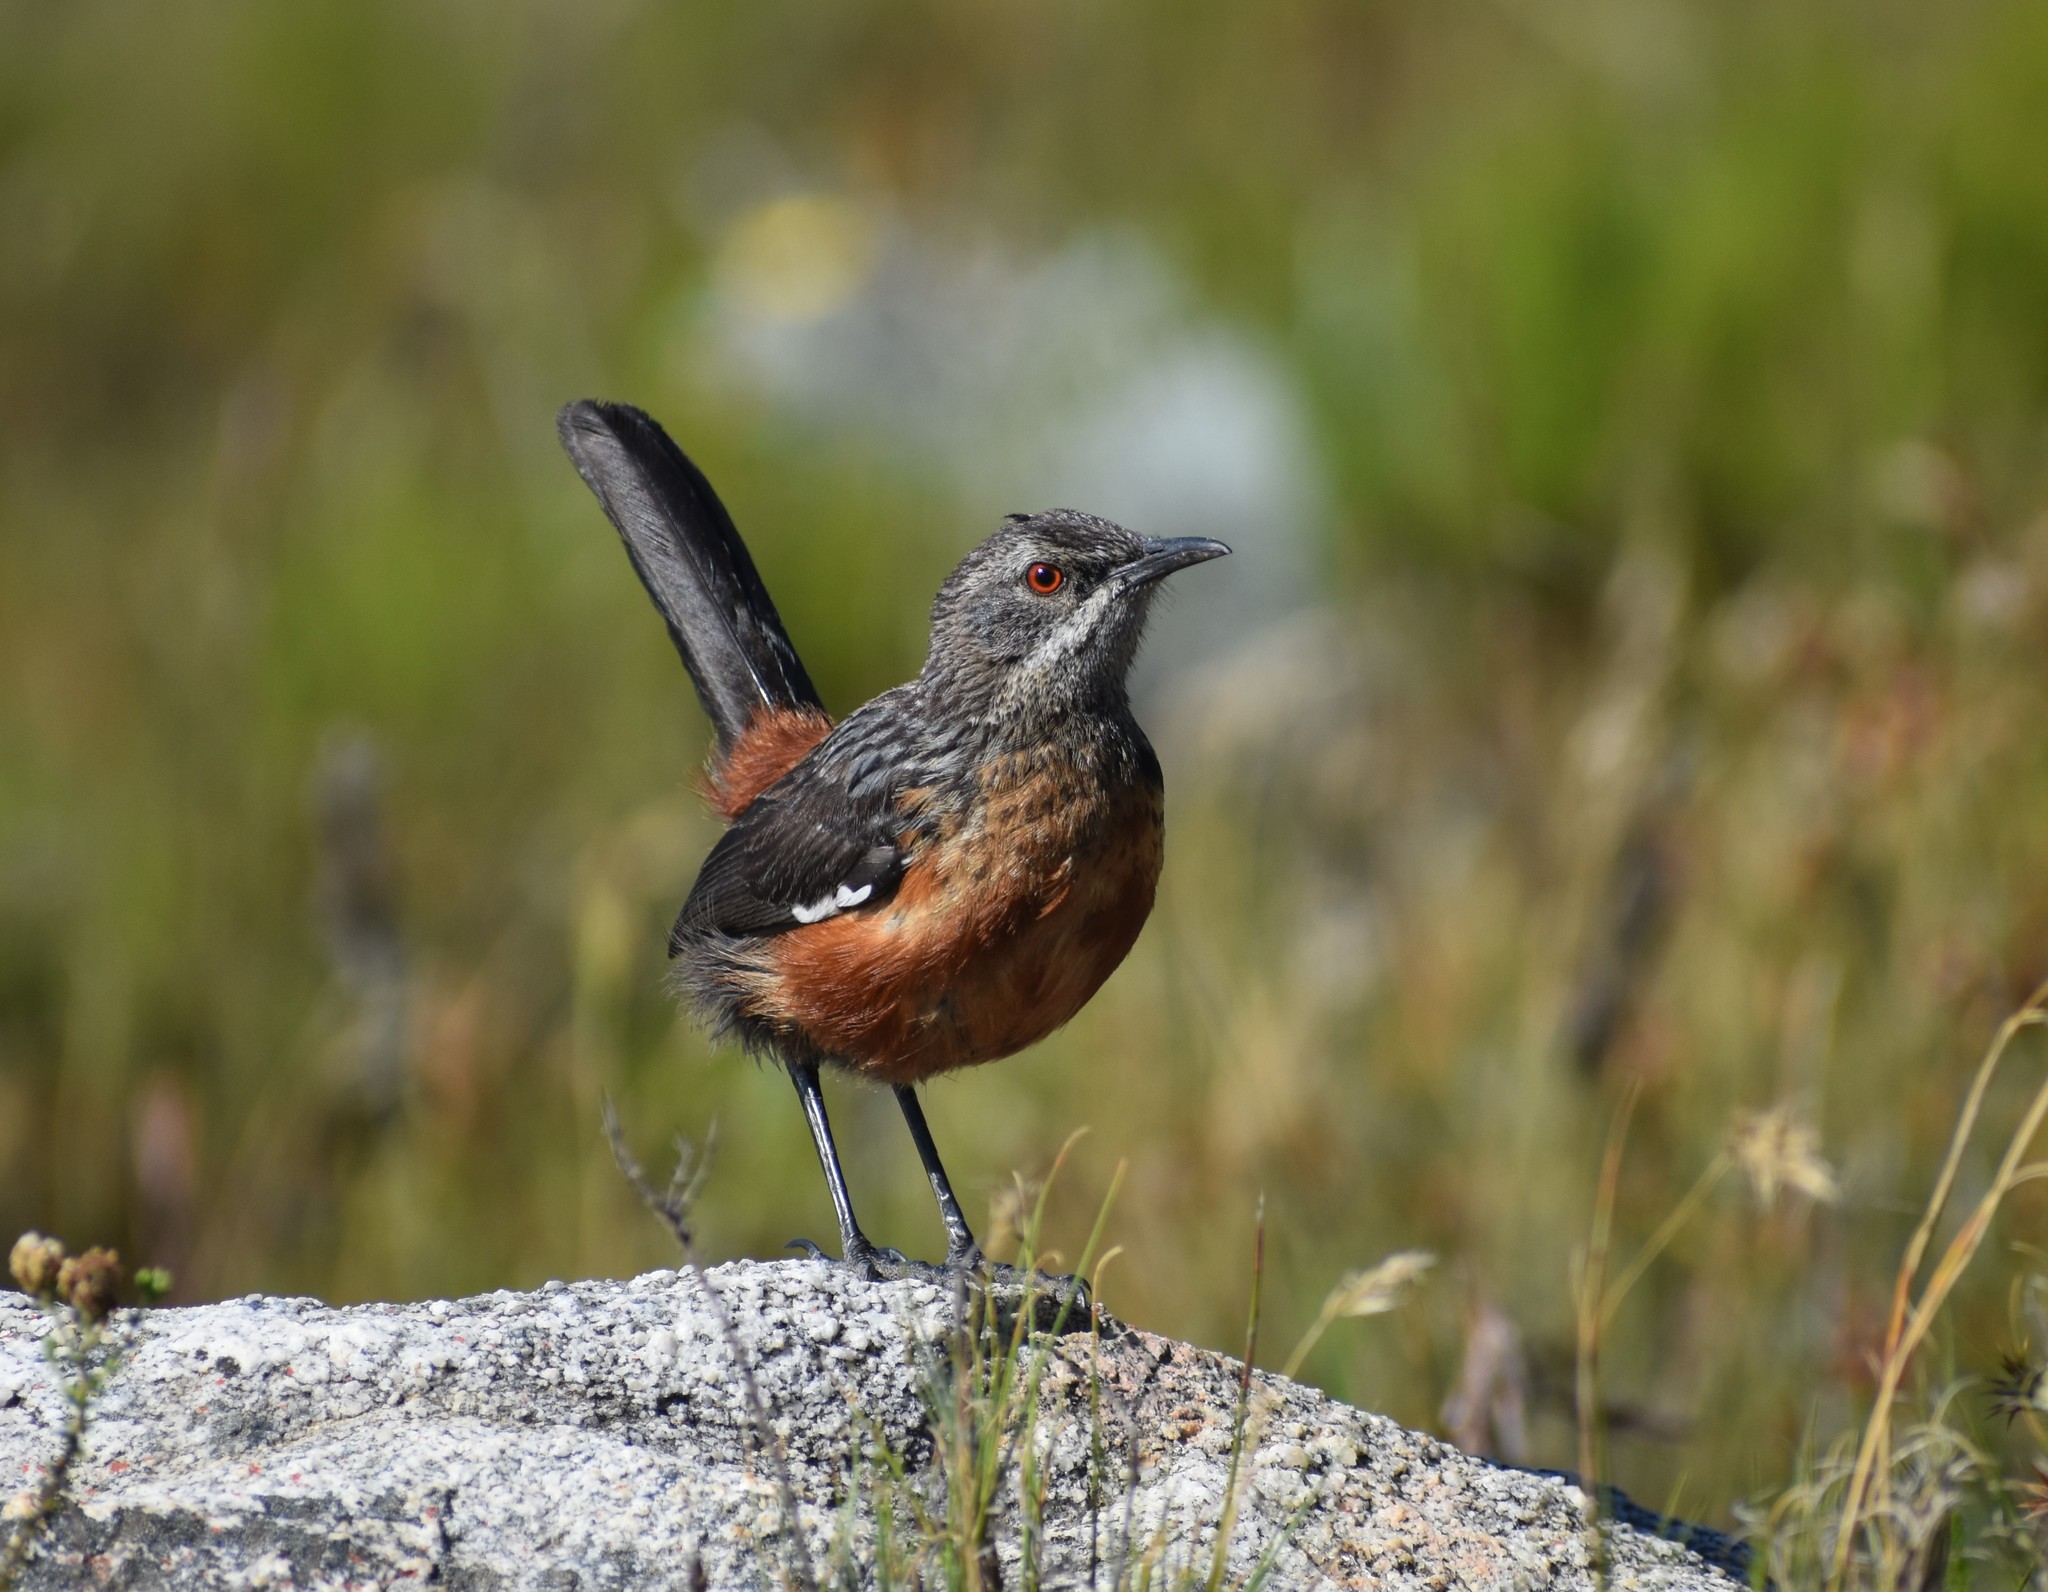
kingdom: Animalia
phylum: Chordata
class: Aves
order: Passeriformes
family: Chaetopidae
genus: Chaetops
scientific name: Chaetops frenatus
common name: Cape rockjumper
